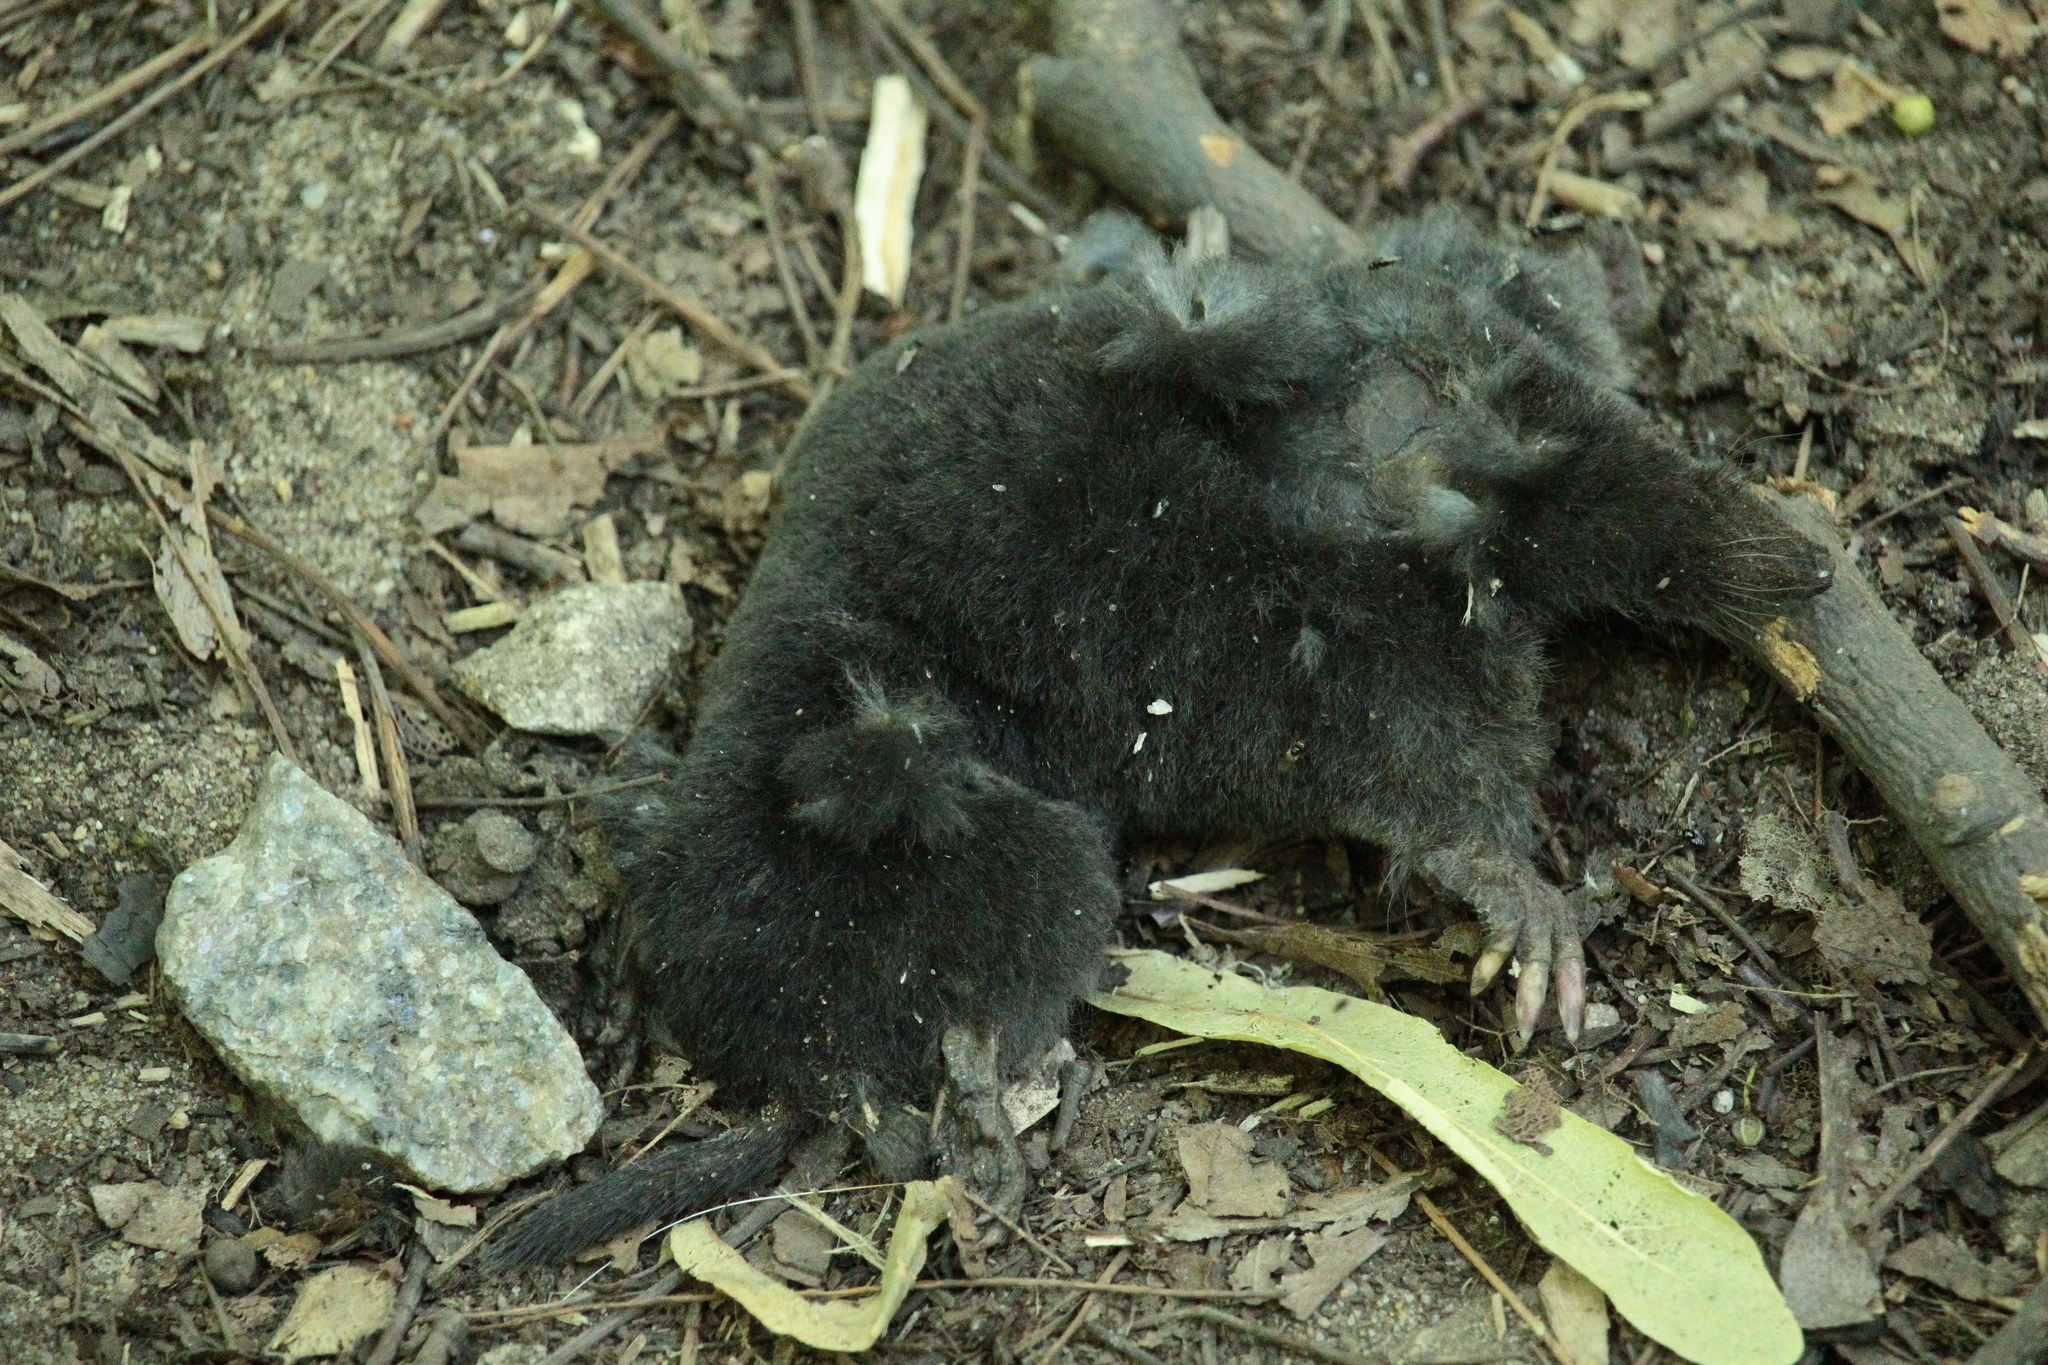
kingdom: Animalia
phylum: Chordata
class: Mammalia
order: Soricomorpha
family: Talpidae
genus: Talpa
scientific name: Talpa europaea
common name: European mole
